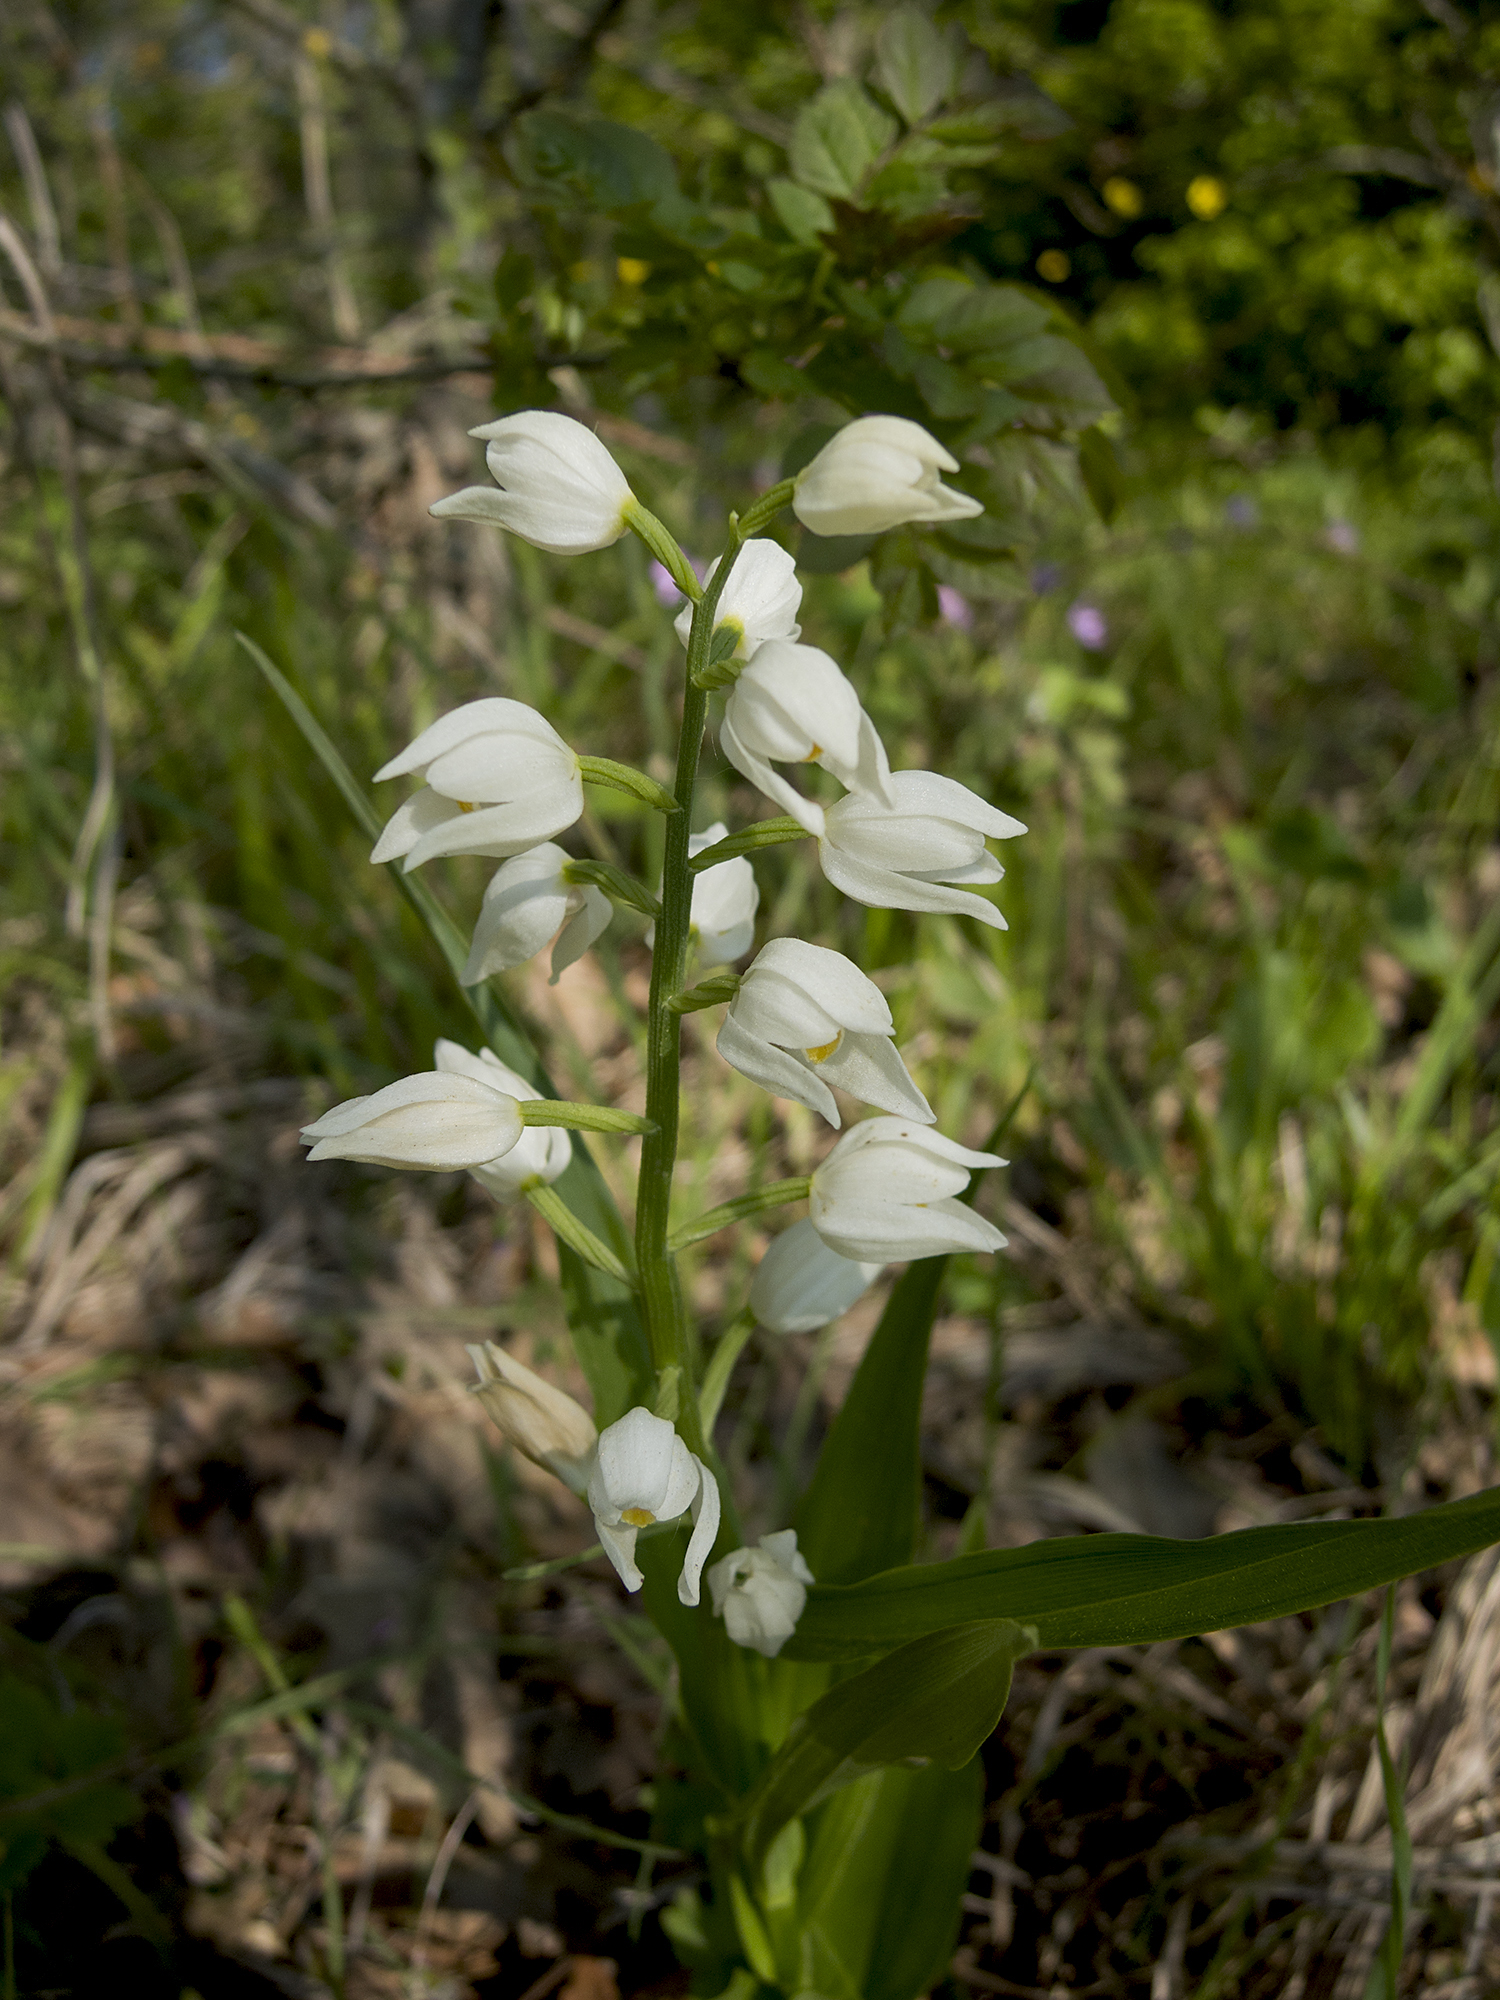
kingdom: Plantae
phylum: Tracheophyta
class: Liliopsida
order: Asparagales
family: Orchidaceae
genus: Cephalanthera
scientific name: Cephalanthera longifolia
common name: Narrow-leaved helleborine
